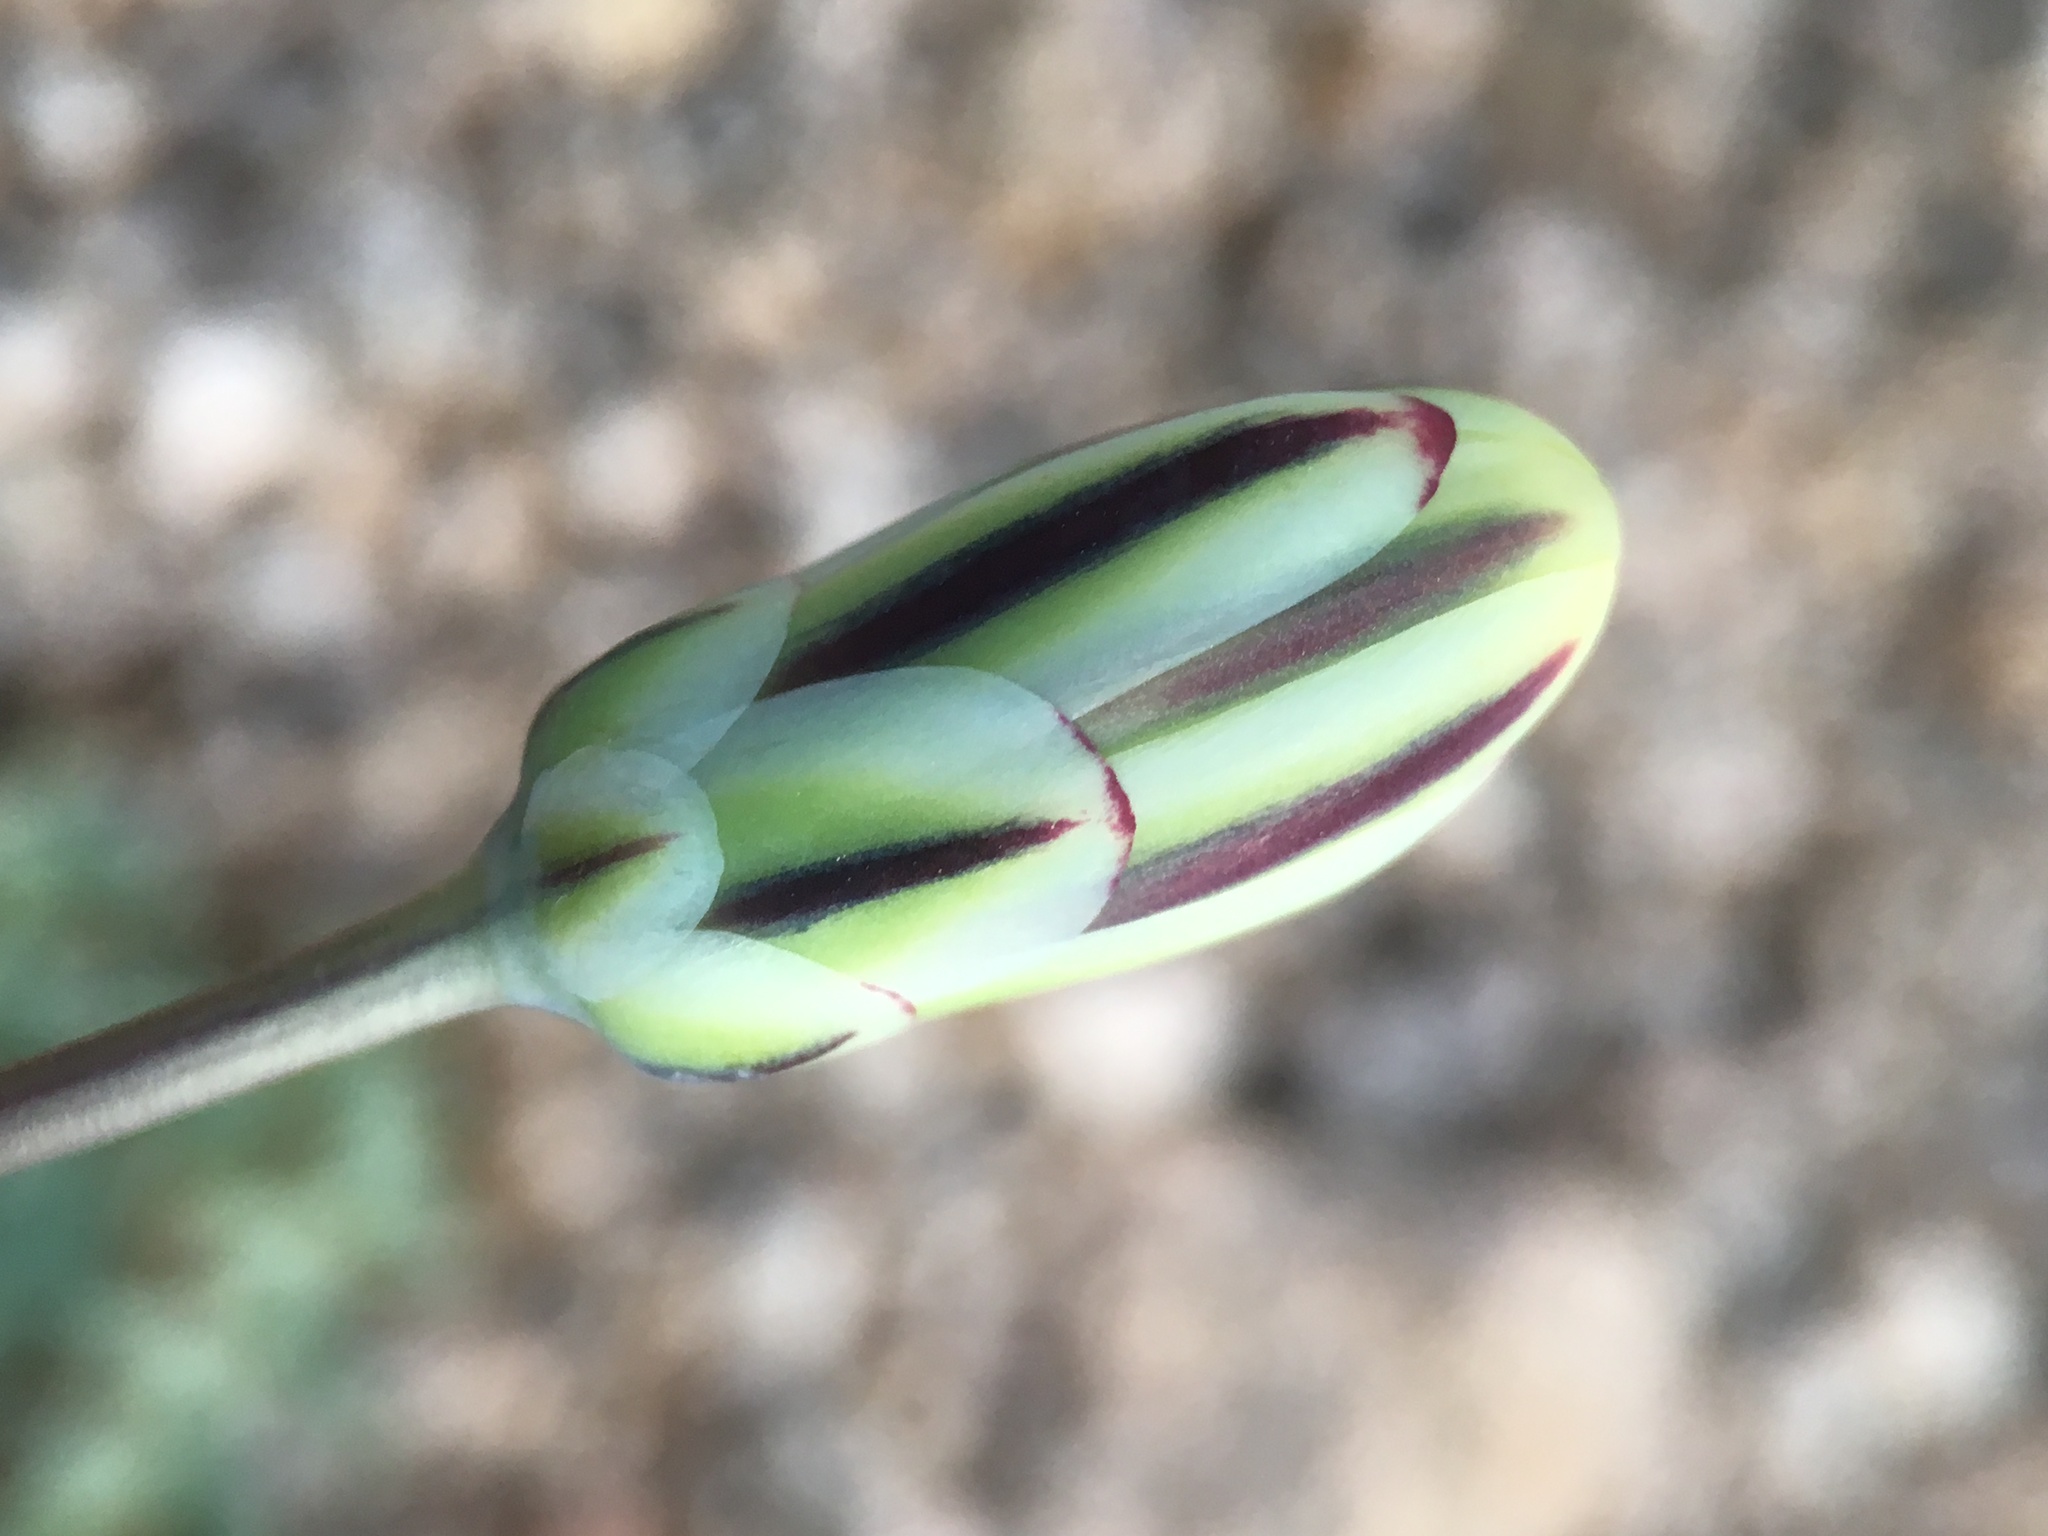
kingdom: Plantae
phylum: Tracheophyta
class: Magnoliopsida
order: Asterales
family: Asteraceae
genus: Anisocoma
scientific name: Anisocoma acaulis
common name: Scalebud
